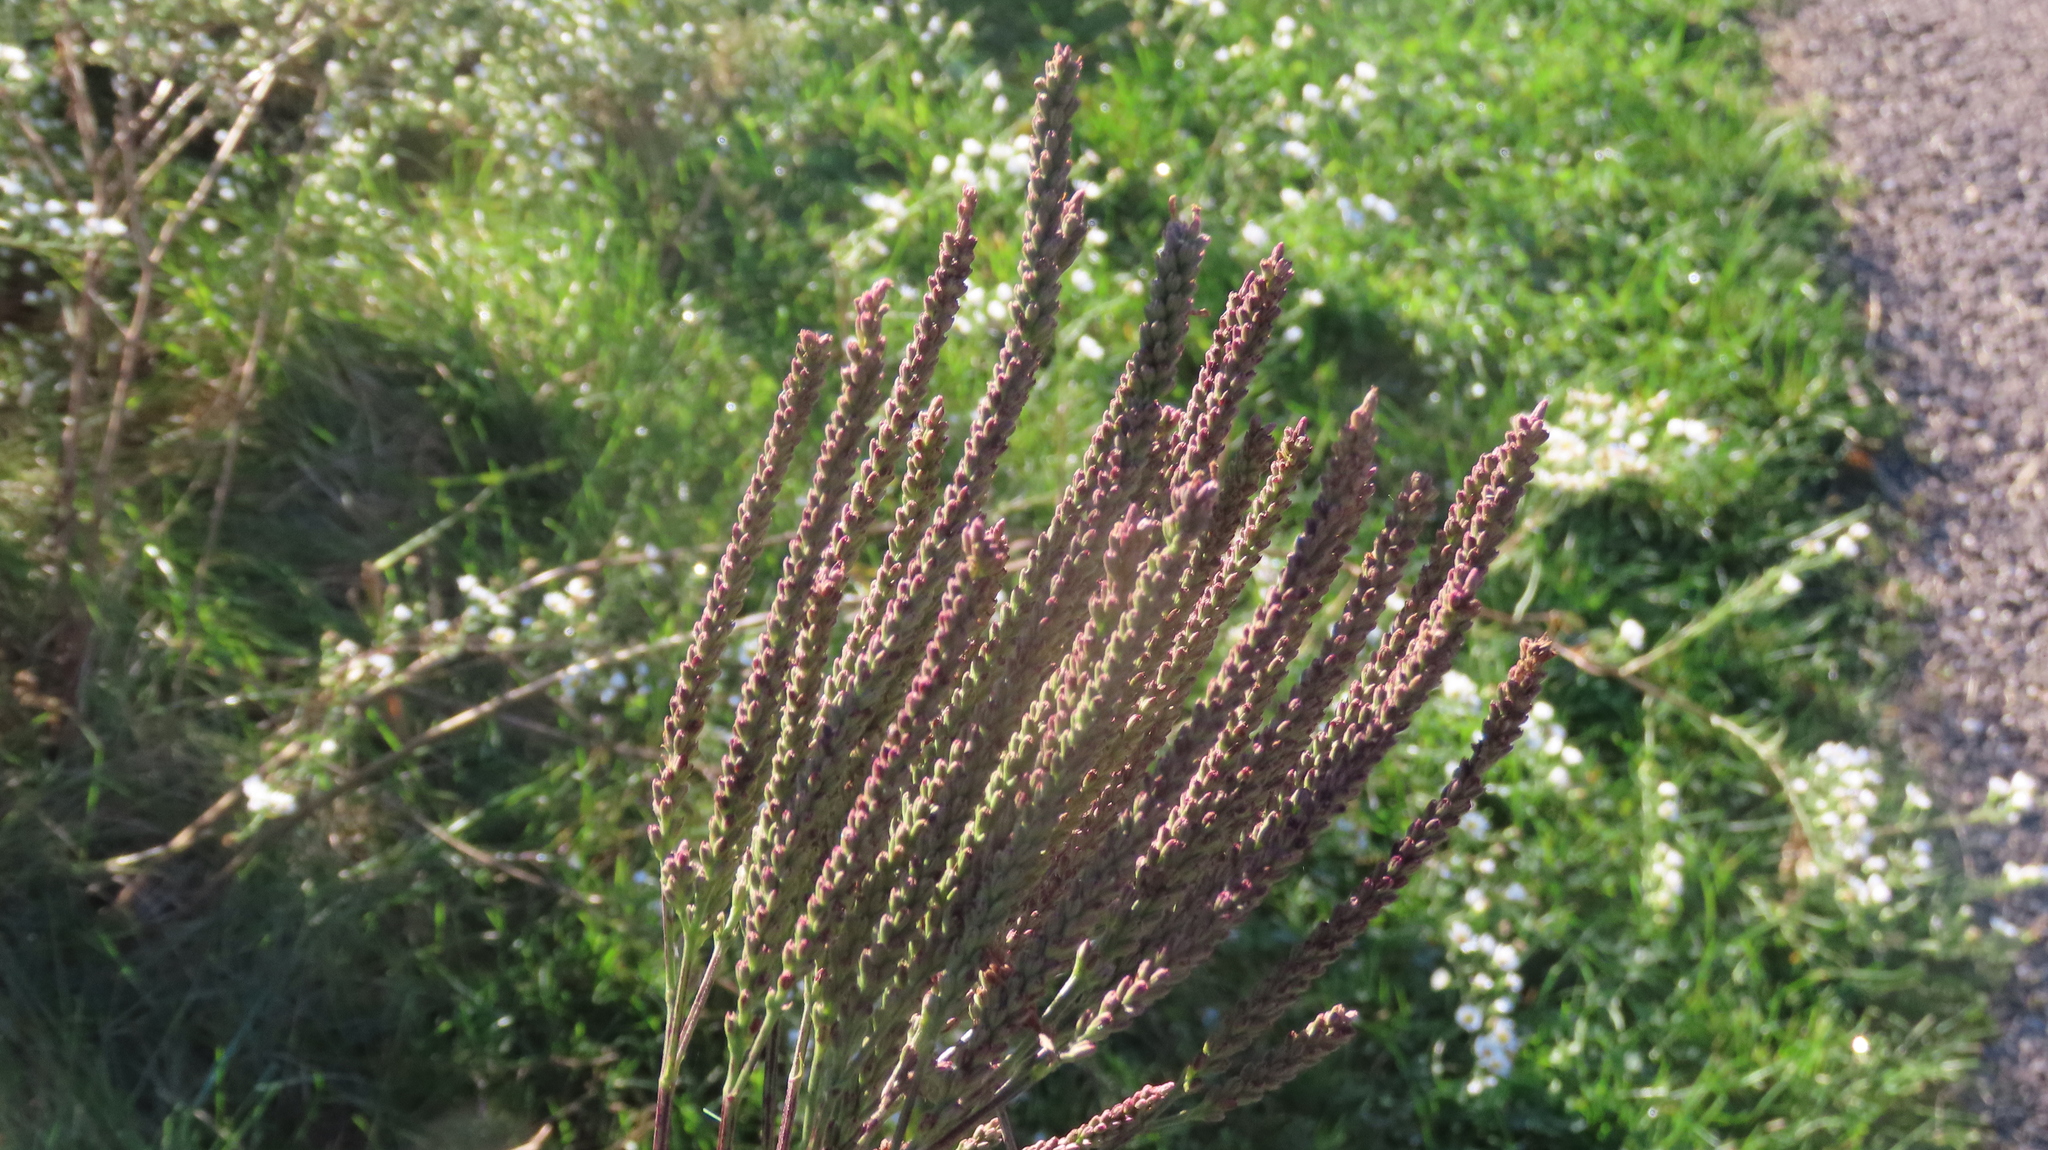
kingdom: Plantae
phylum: Tracheophyta
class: Magnoliopsida
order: Lamiales
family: Verbenaceae
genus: Verbena
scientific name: Verbena hastata
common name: American blue vervain
